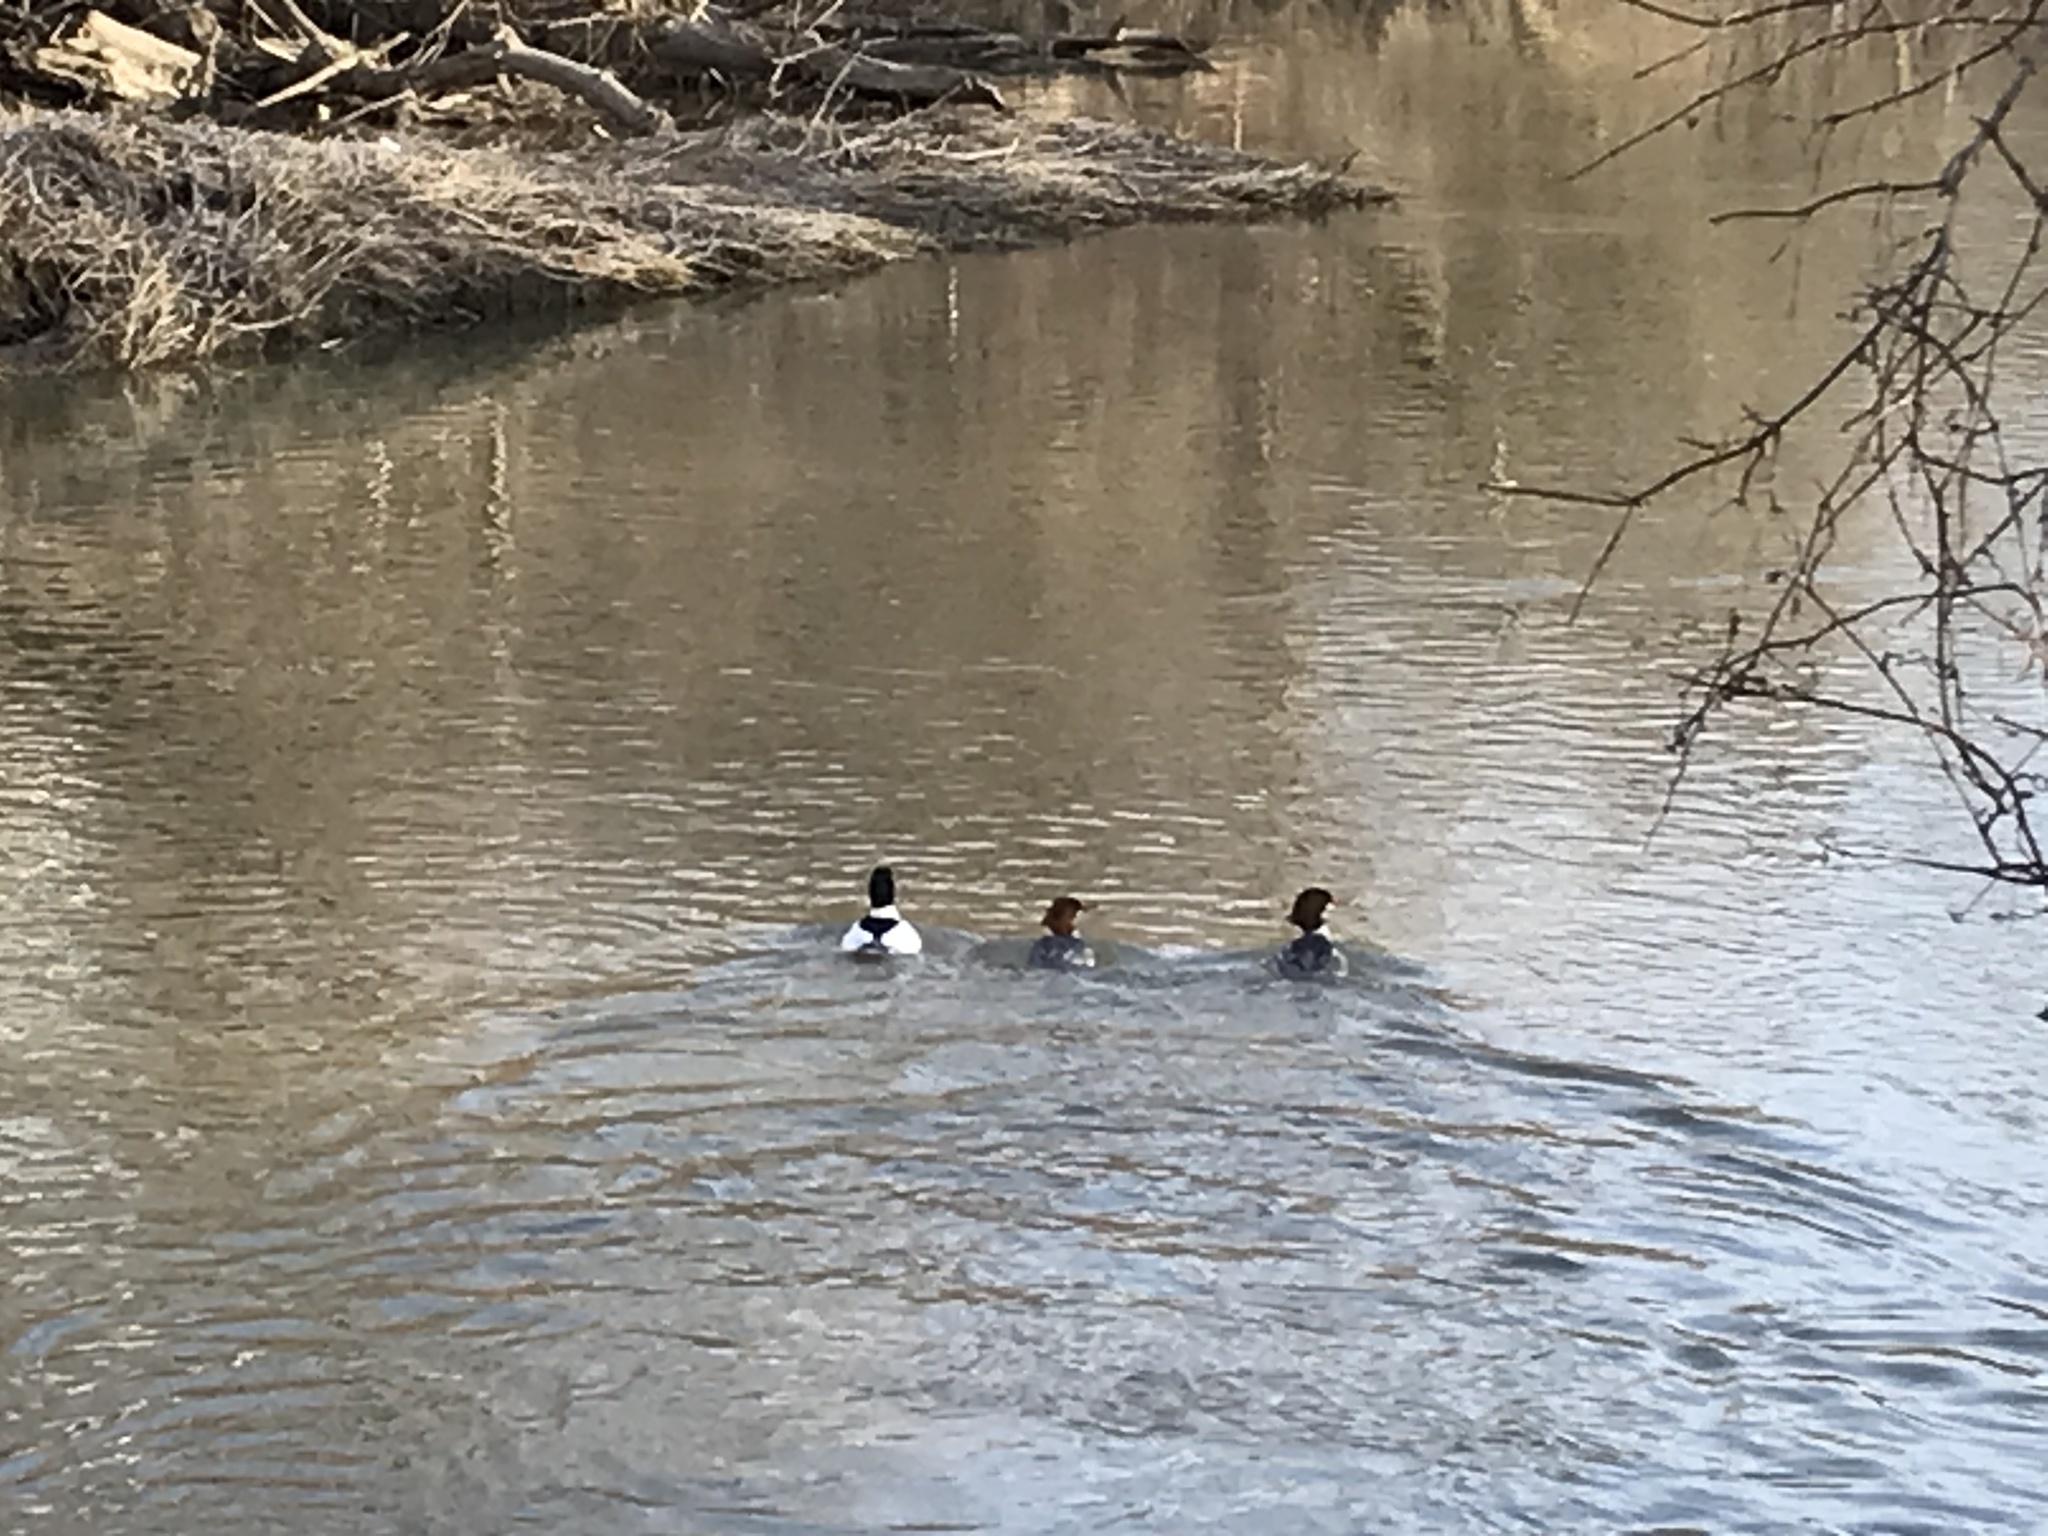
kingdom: Animalia
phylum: Chordata
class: Aves
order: Anseriformes
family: Anatidae
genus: Mergus
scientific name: Mergus merganser
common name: Common merganser
